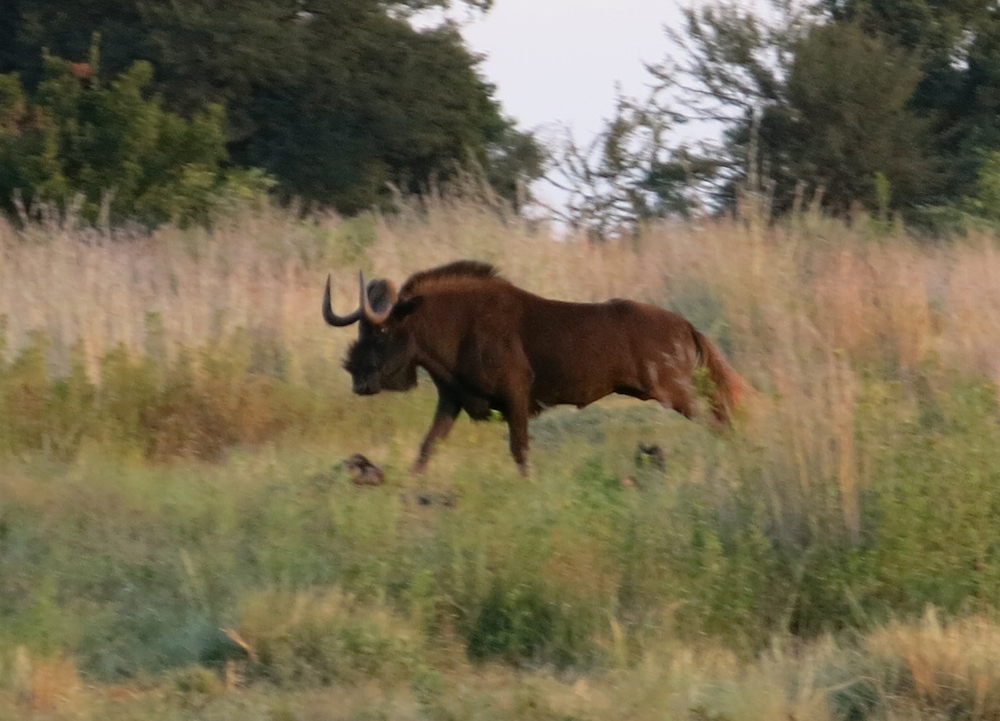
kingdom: Animalia
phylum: Chordata
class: Mammalia
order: Artiodactyla
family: Bovidae
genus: Connochaetes
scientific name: Connochaetes gnou
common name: Black wildebeest
